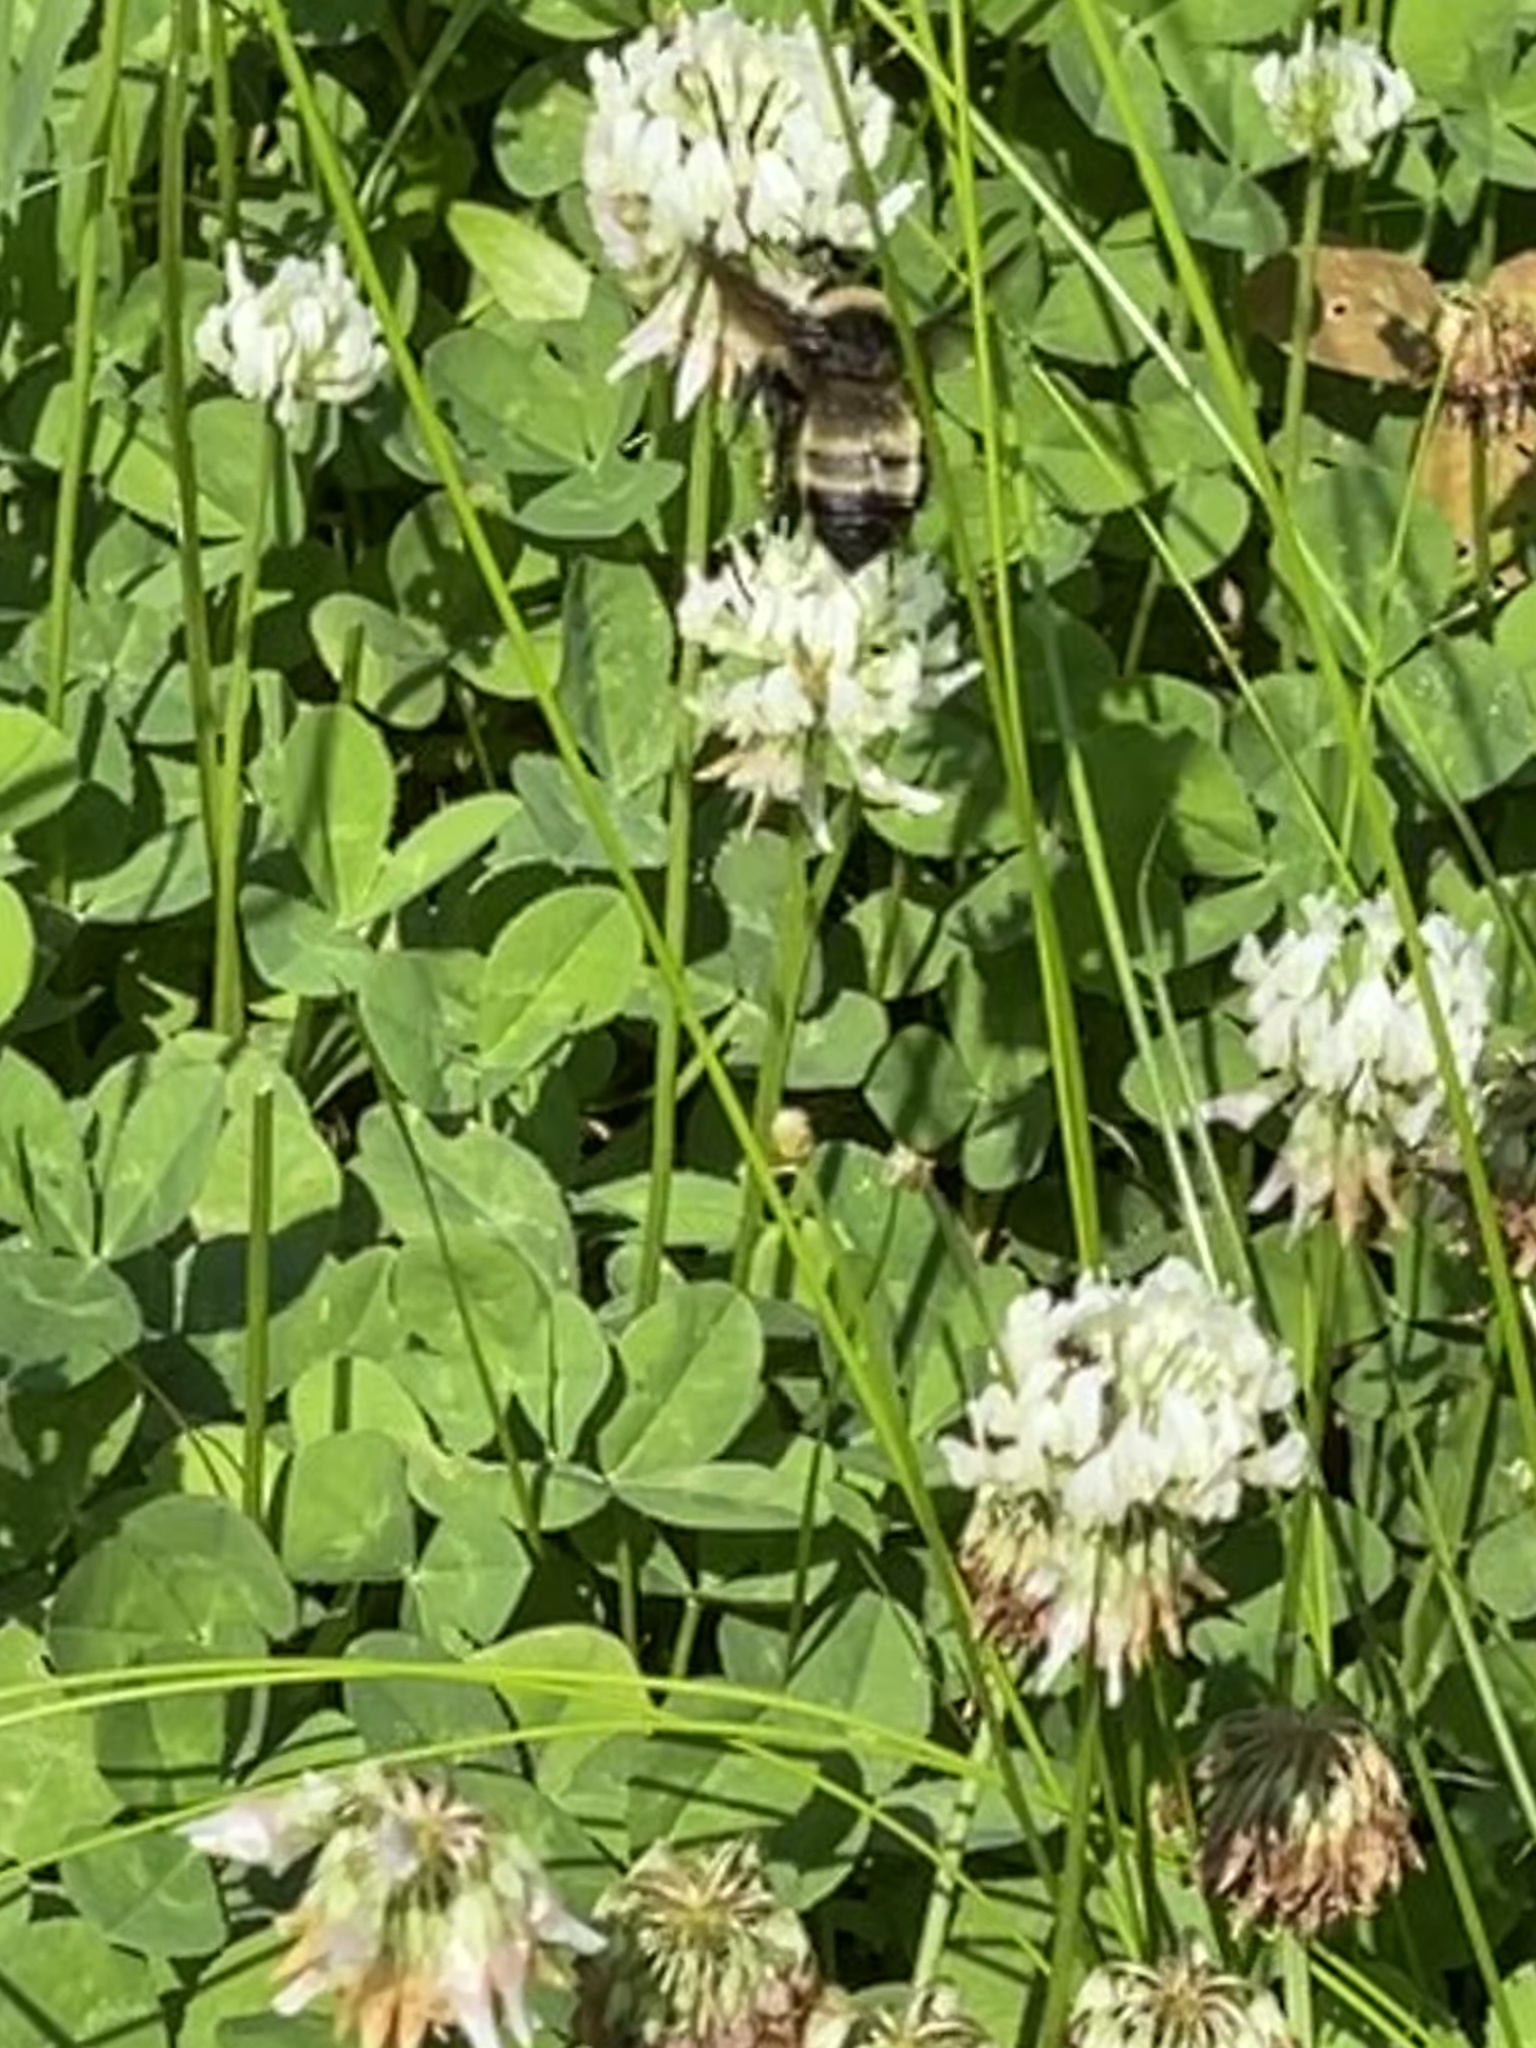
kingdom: Animalia
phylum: Arthropoda
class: Insecta
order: Hymenoptera
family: Apidae
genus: Bombus
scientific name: Bombus pensylvanicus
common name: Bumble bee
